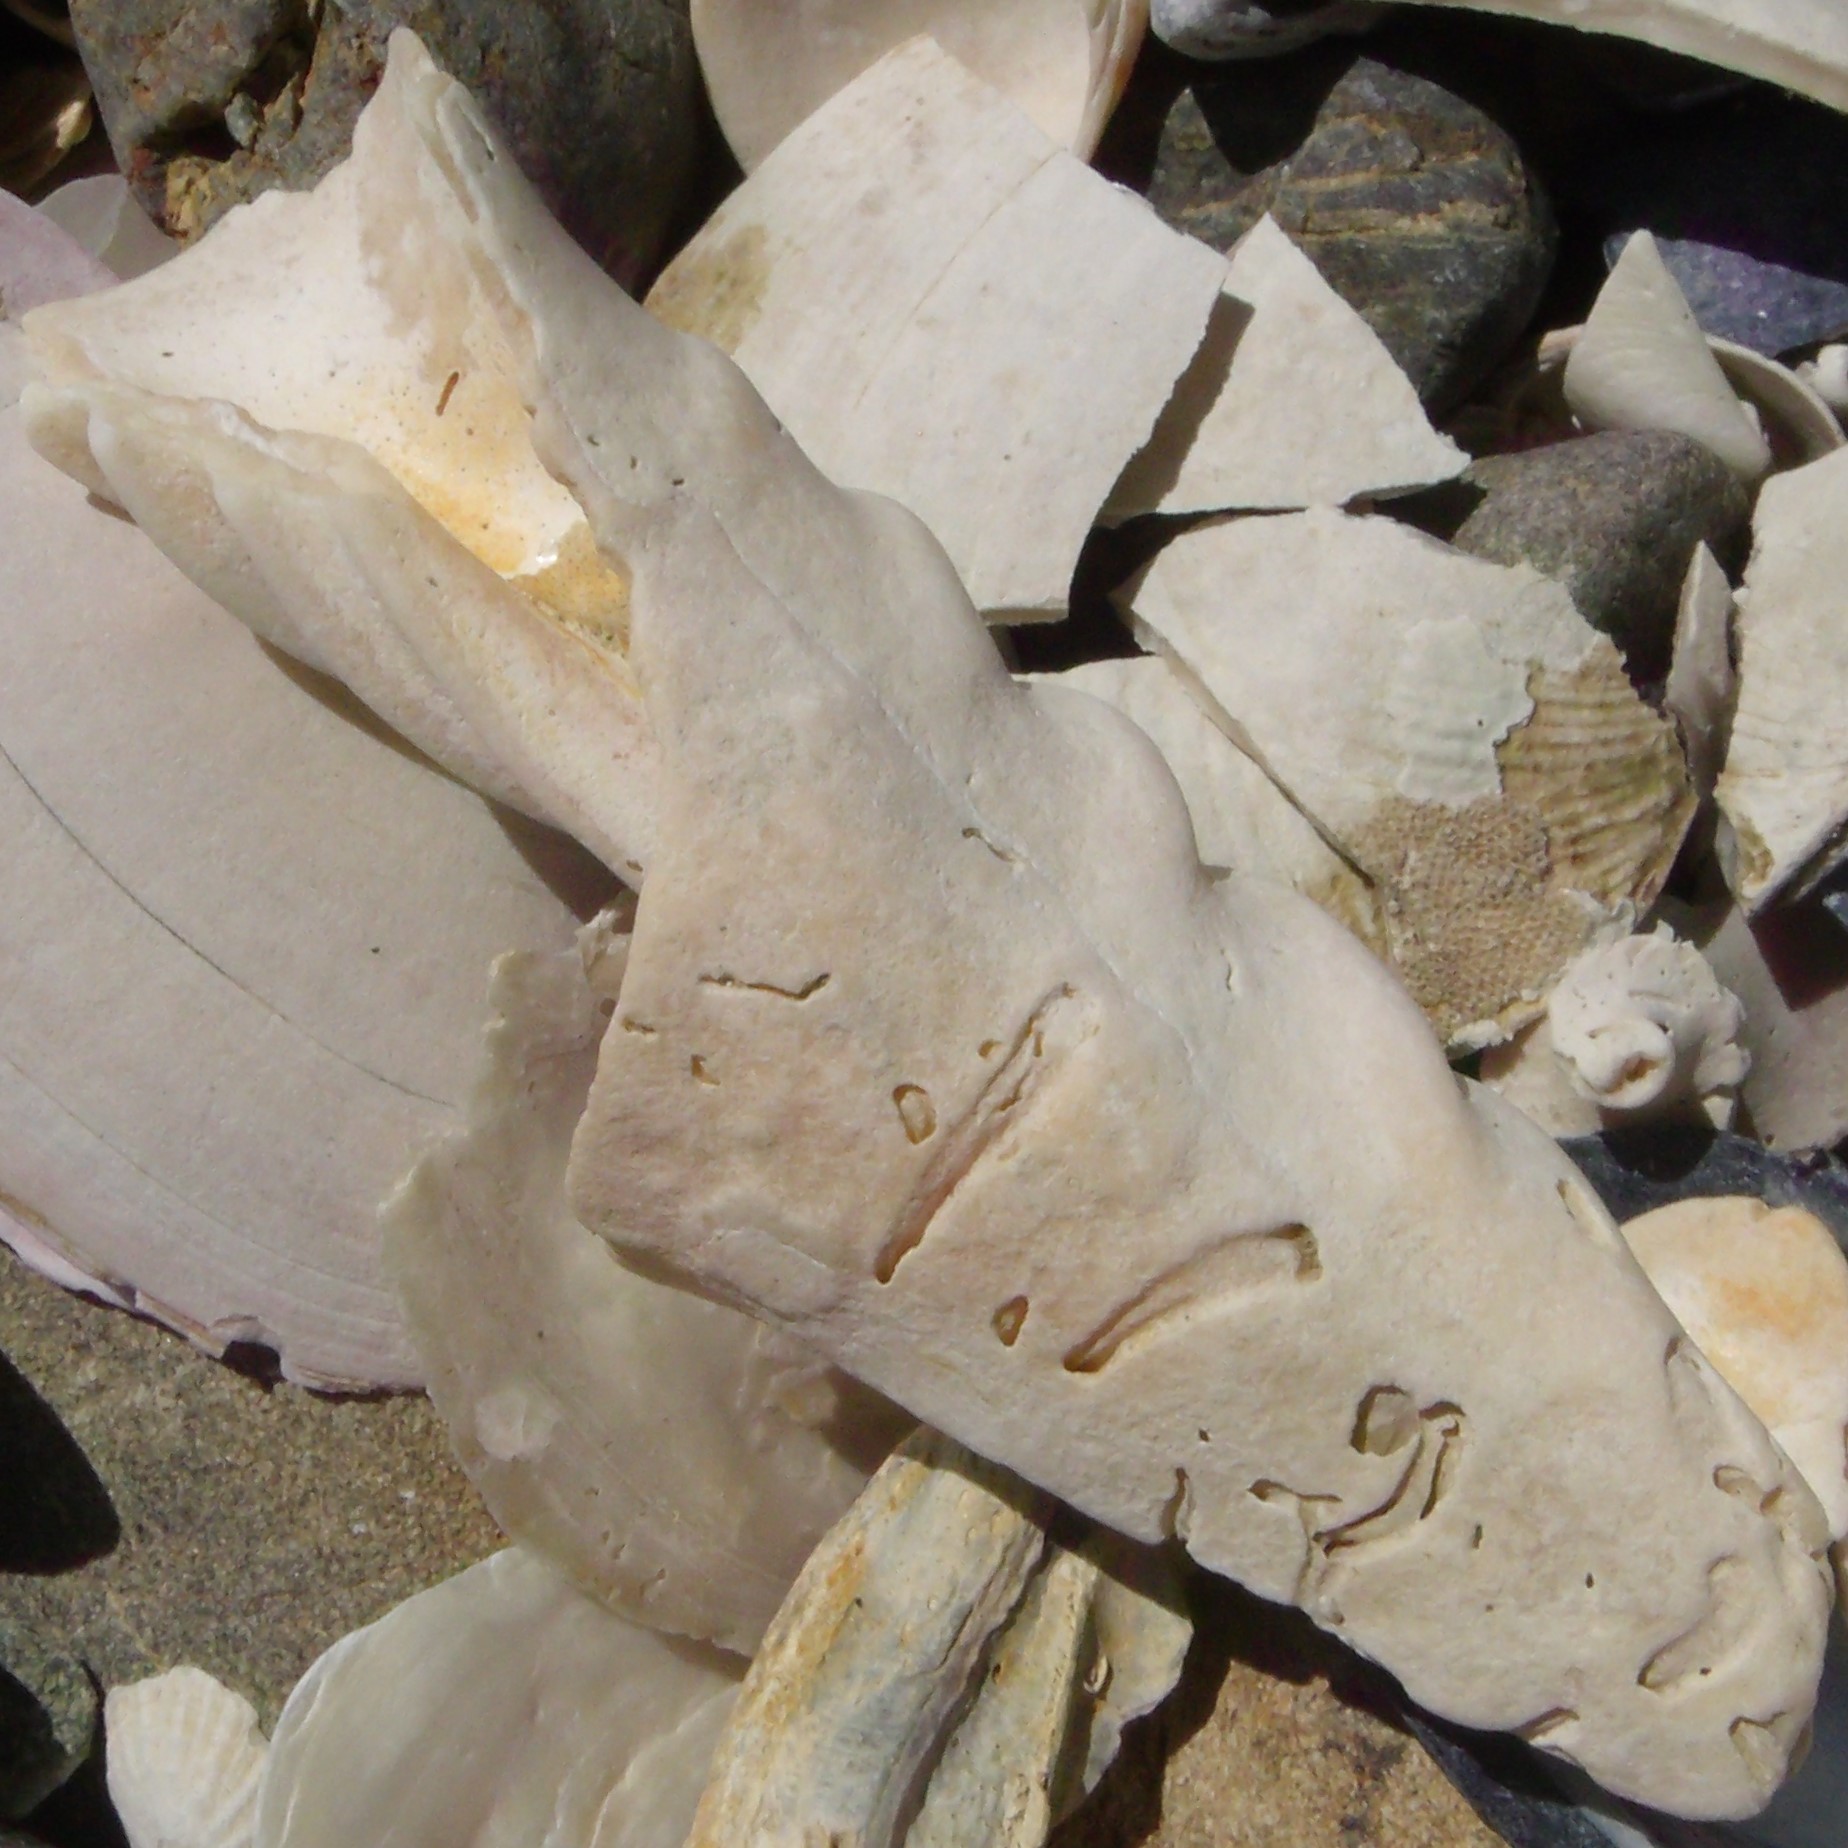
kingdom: Animalia
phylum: Mollusca
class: Gastropoda
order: Neogastropoda
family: Volutidae
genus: Alcithoe
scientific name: Alcithoe arabica
